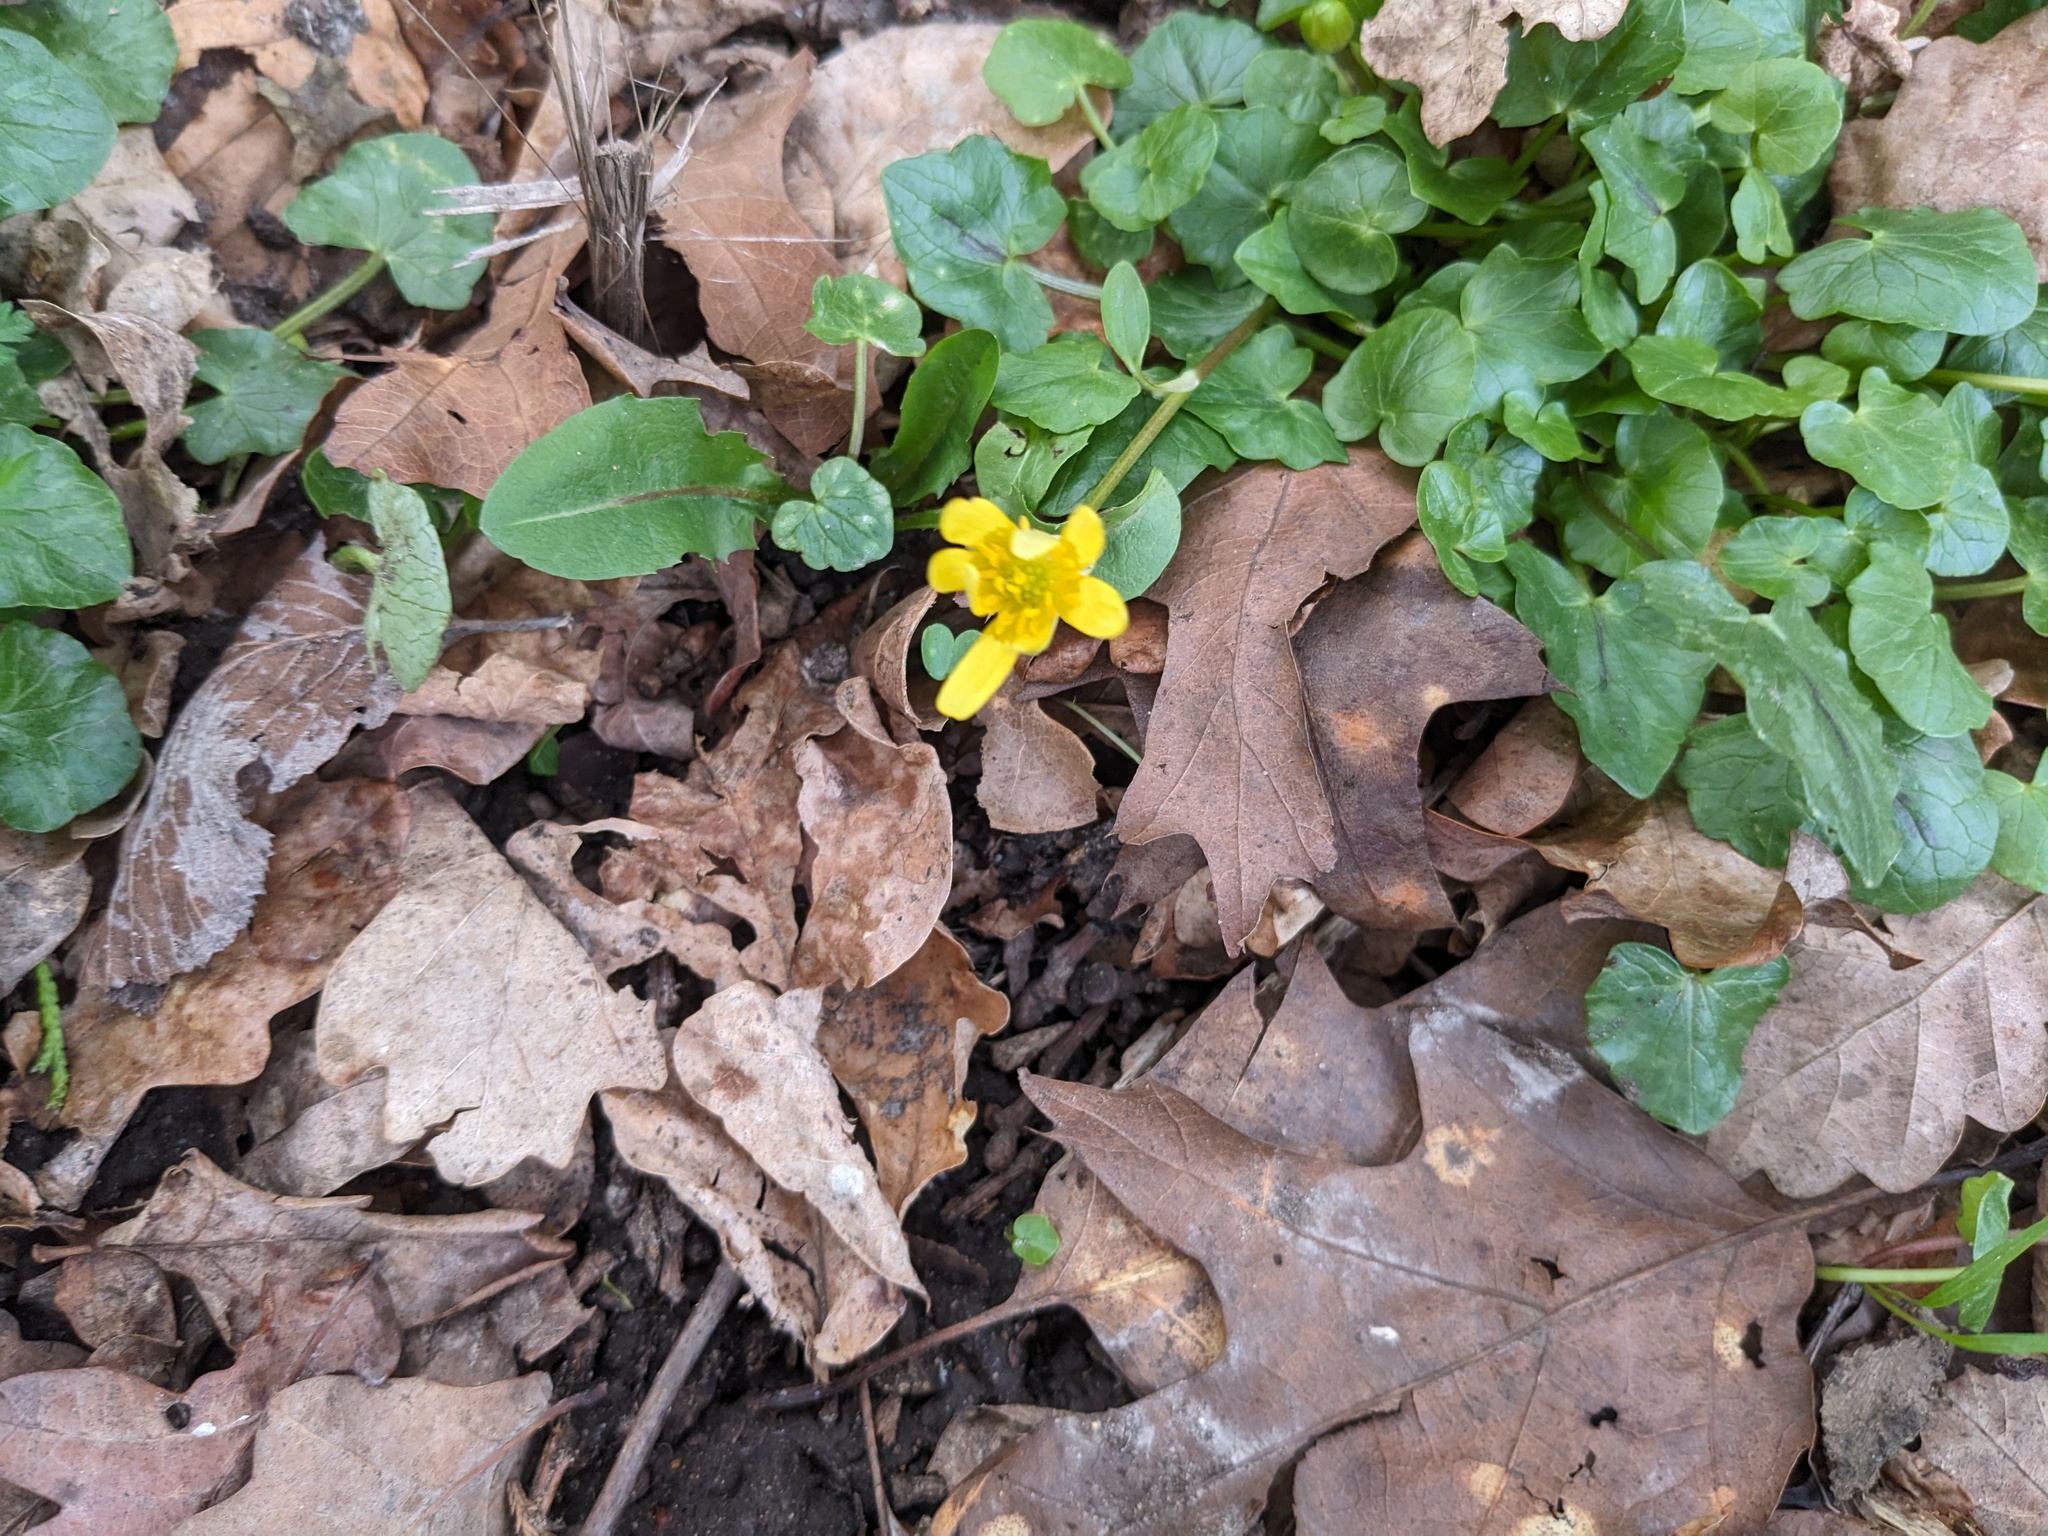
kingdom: Plantae
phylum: Tracheophyta
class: Magnoliopsida
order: Ranunculales
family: Ranunculaceae
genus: Ficaria
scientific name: Ficaria verna
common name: Lesser celandine
